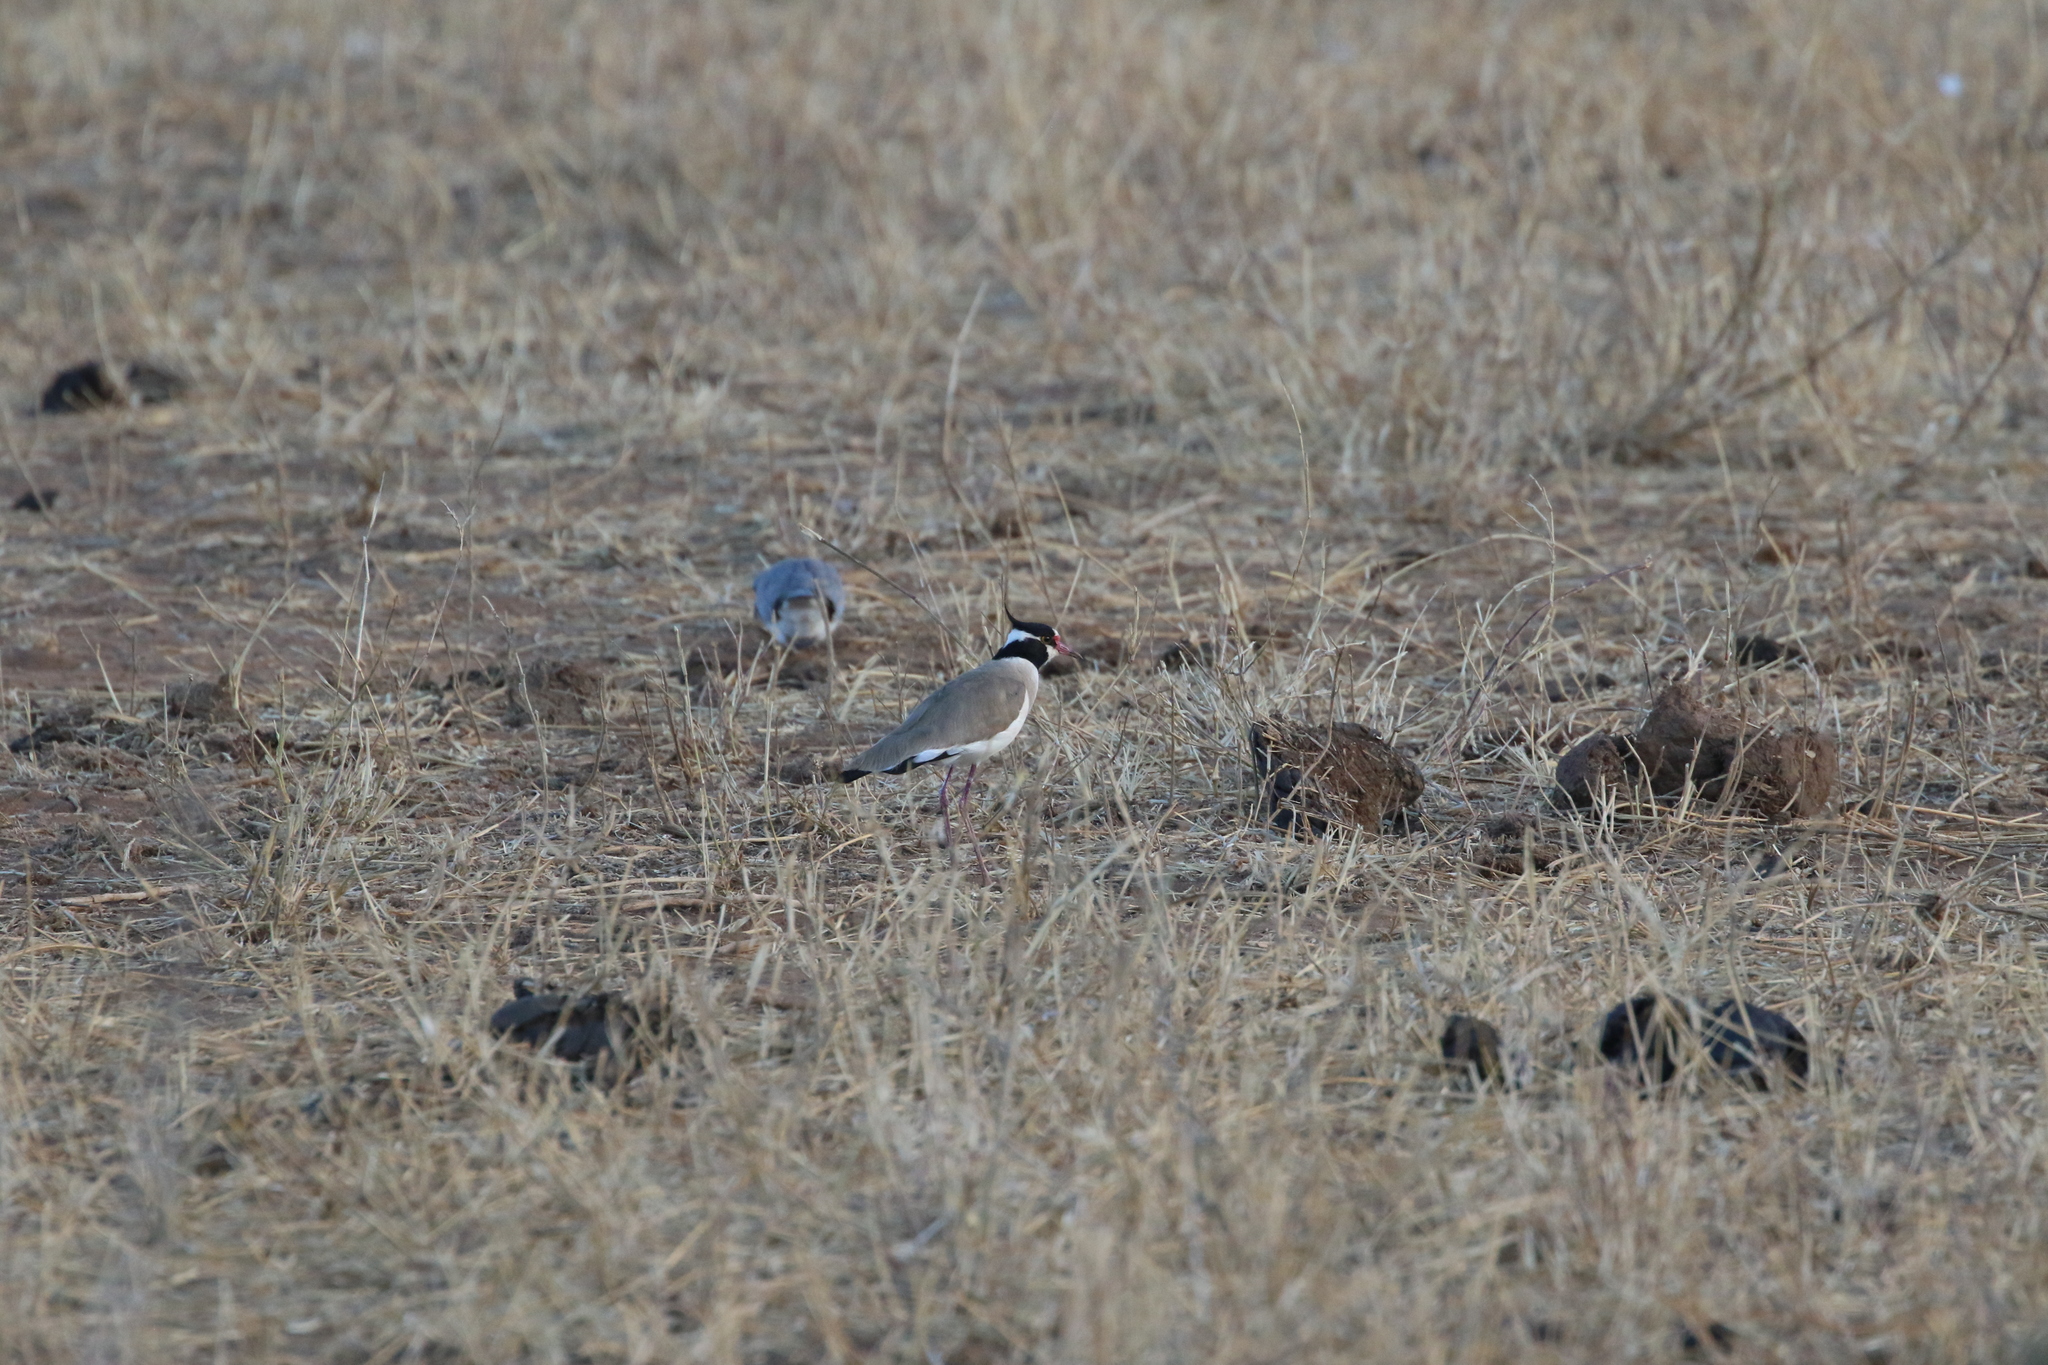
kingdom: Animalia
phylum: Chordata
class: Aves
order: Charadriiformes
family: Charadriidae
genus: Vanellus
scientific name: Vanellus tectus
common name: Black-headed lapwing
